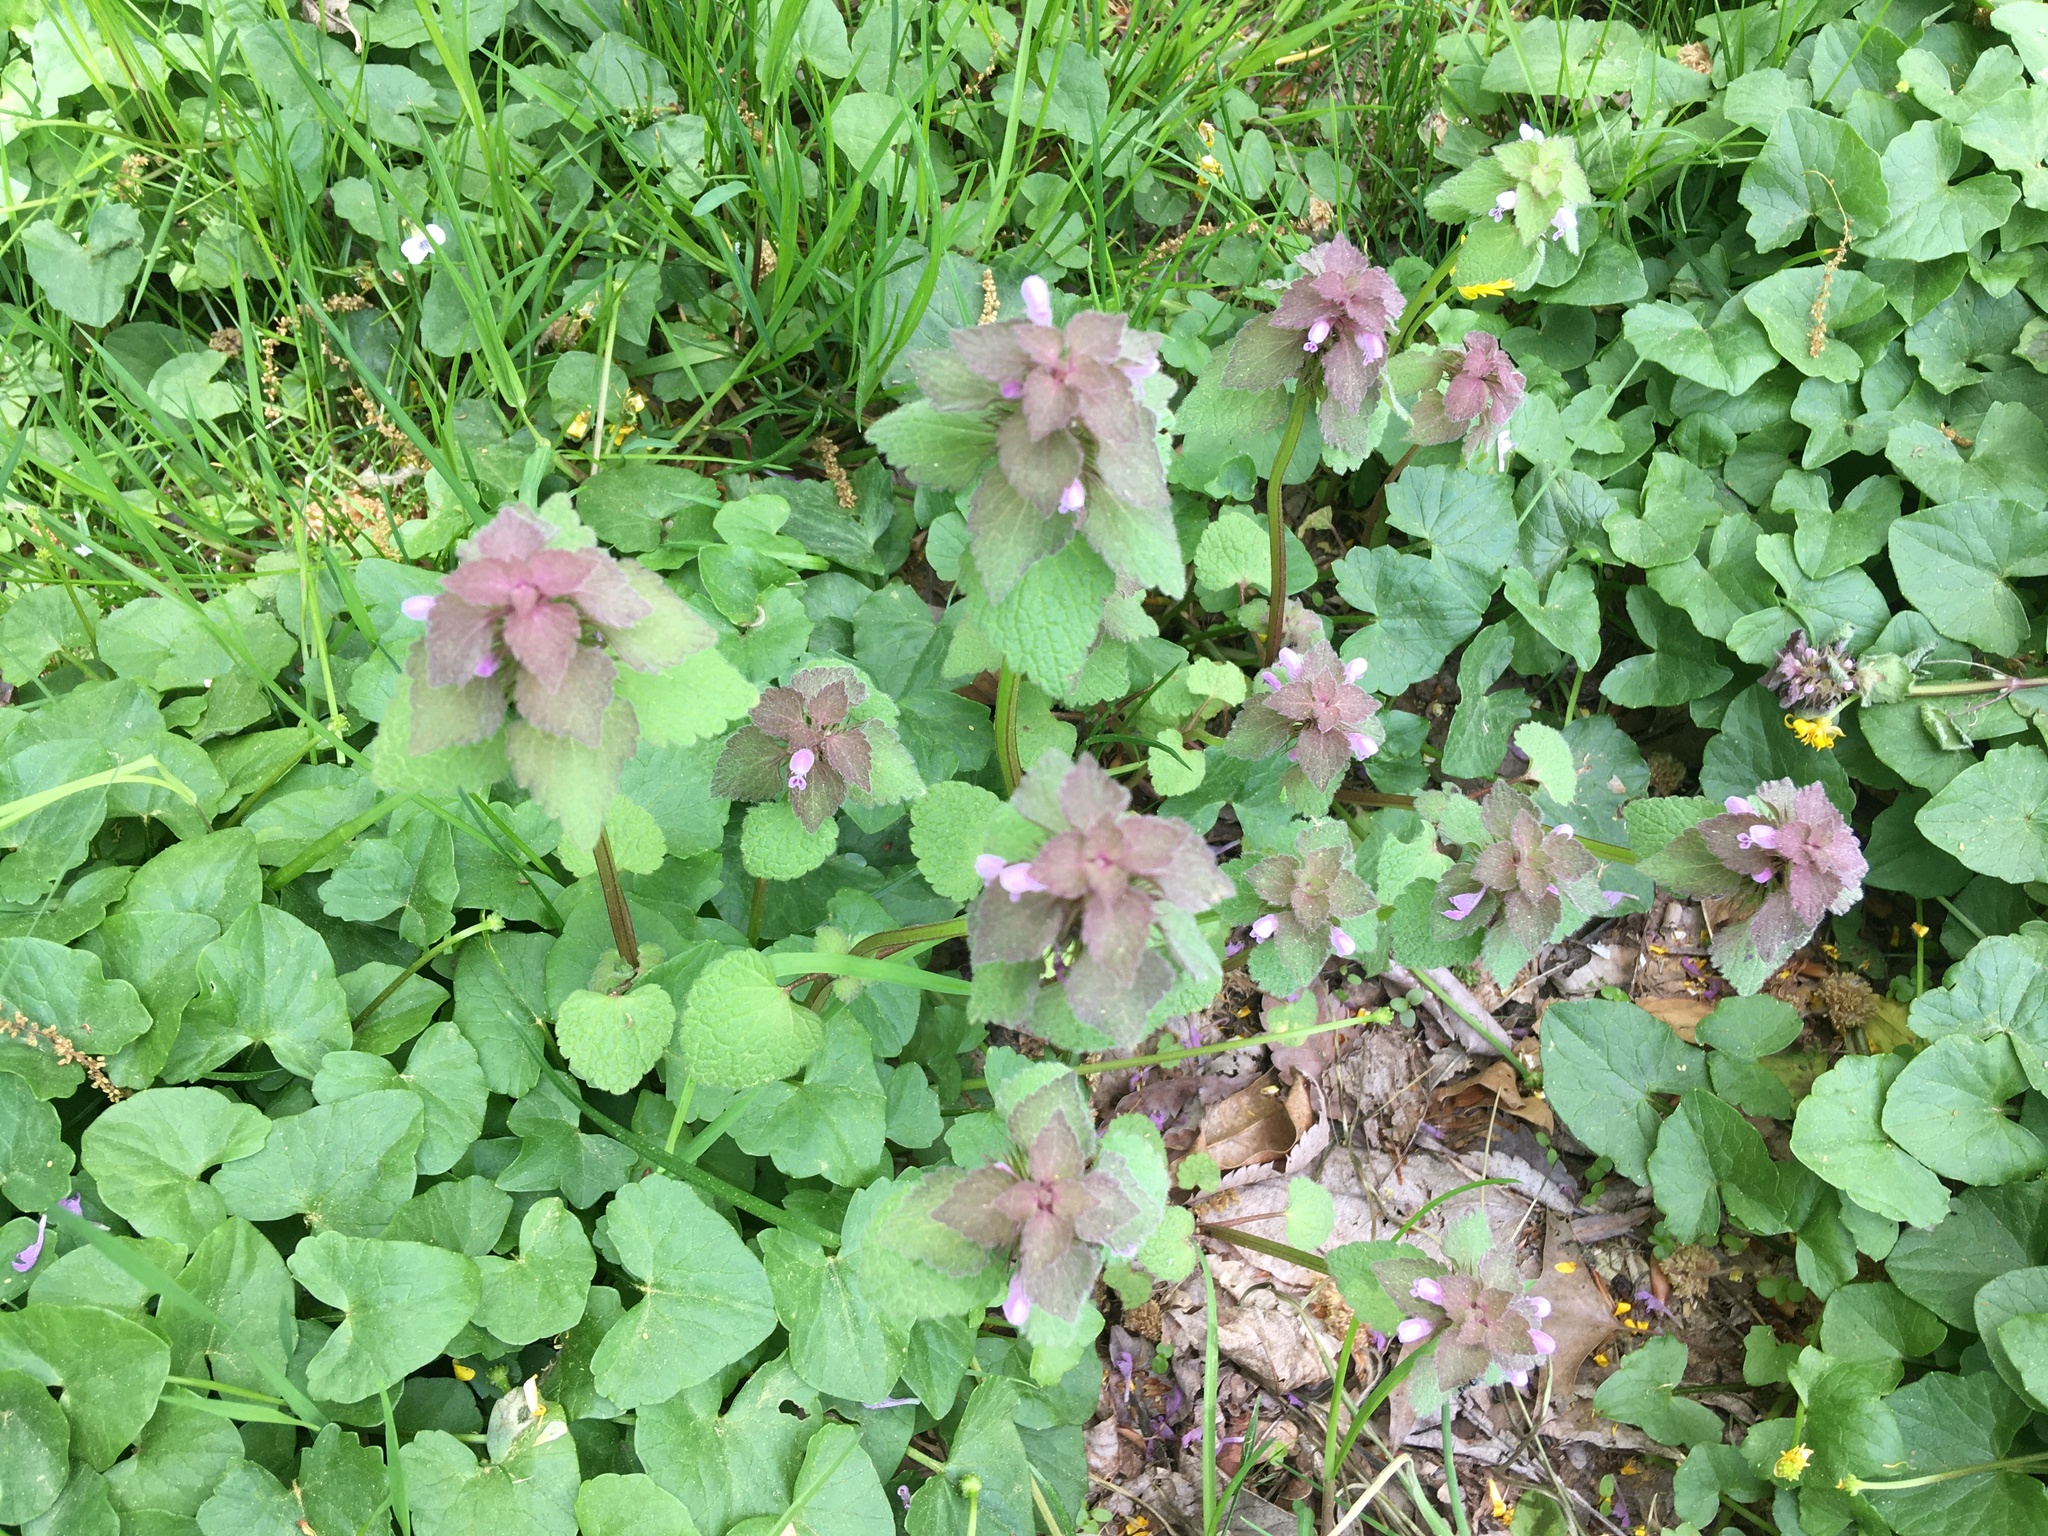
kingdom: Plantae
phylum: Tracheophyta
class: Magnoliopsida
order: Lamiales
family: Lamiaceae
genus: Lamium
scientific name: Lamium purpureum
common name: Red dead-nettle
